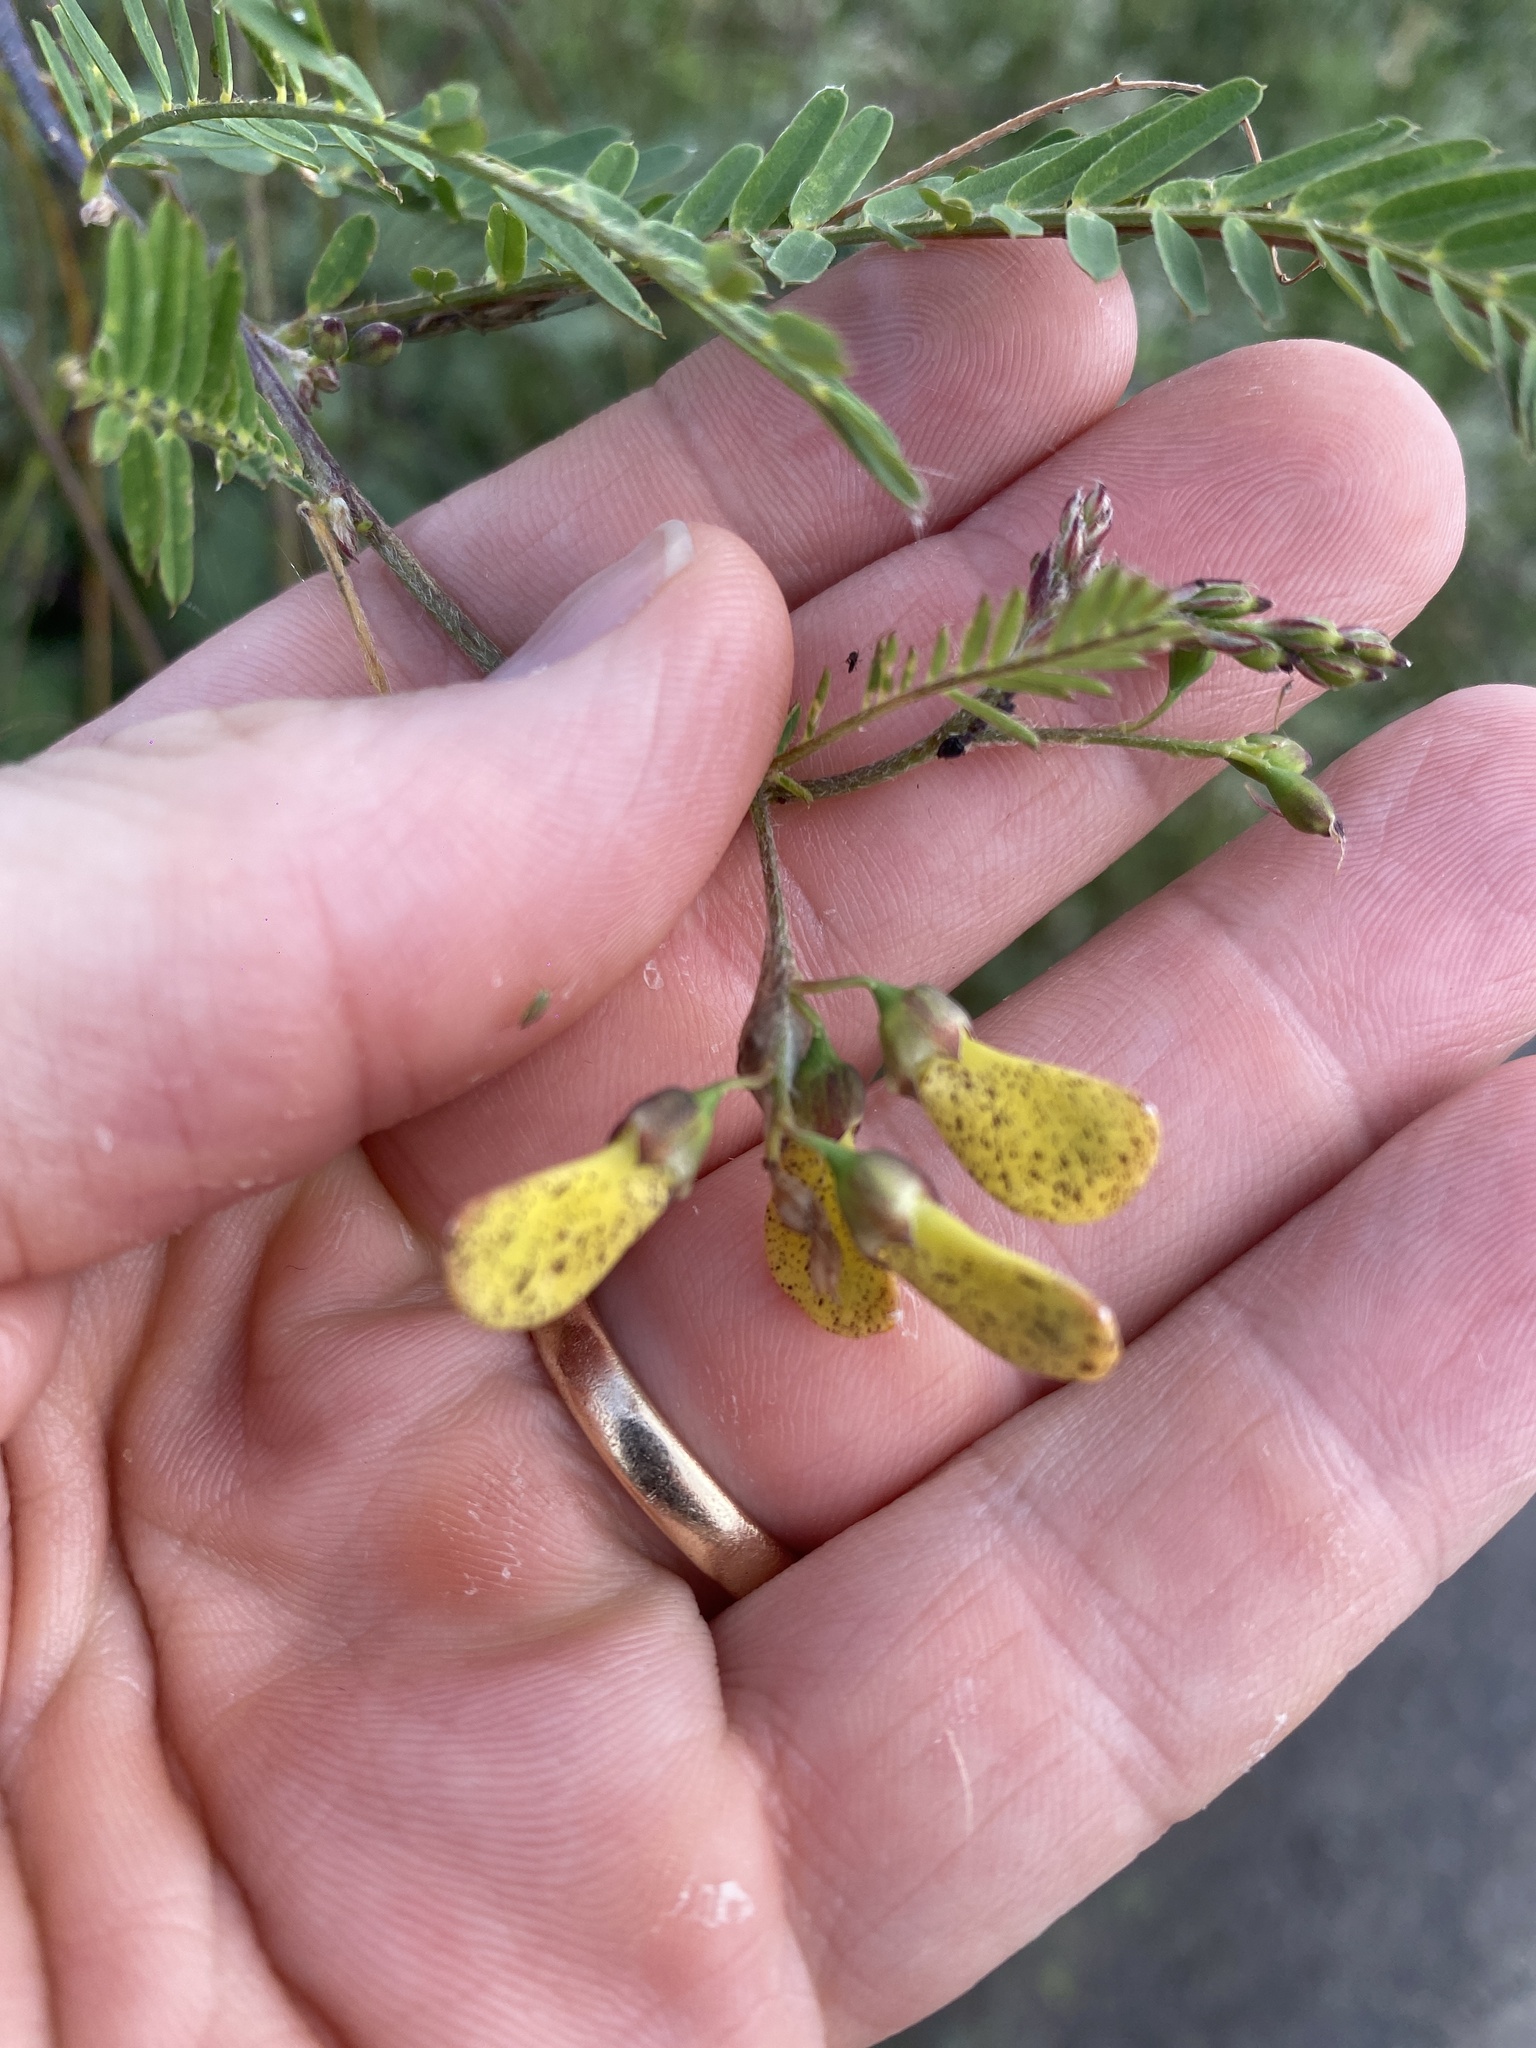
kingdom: Plantae
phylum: Tracheophyta
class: Magnoliopsida
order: Fabales
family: Fabaceae
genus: Sesbania
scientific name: Sesbania cannabina
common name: Canicha
